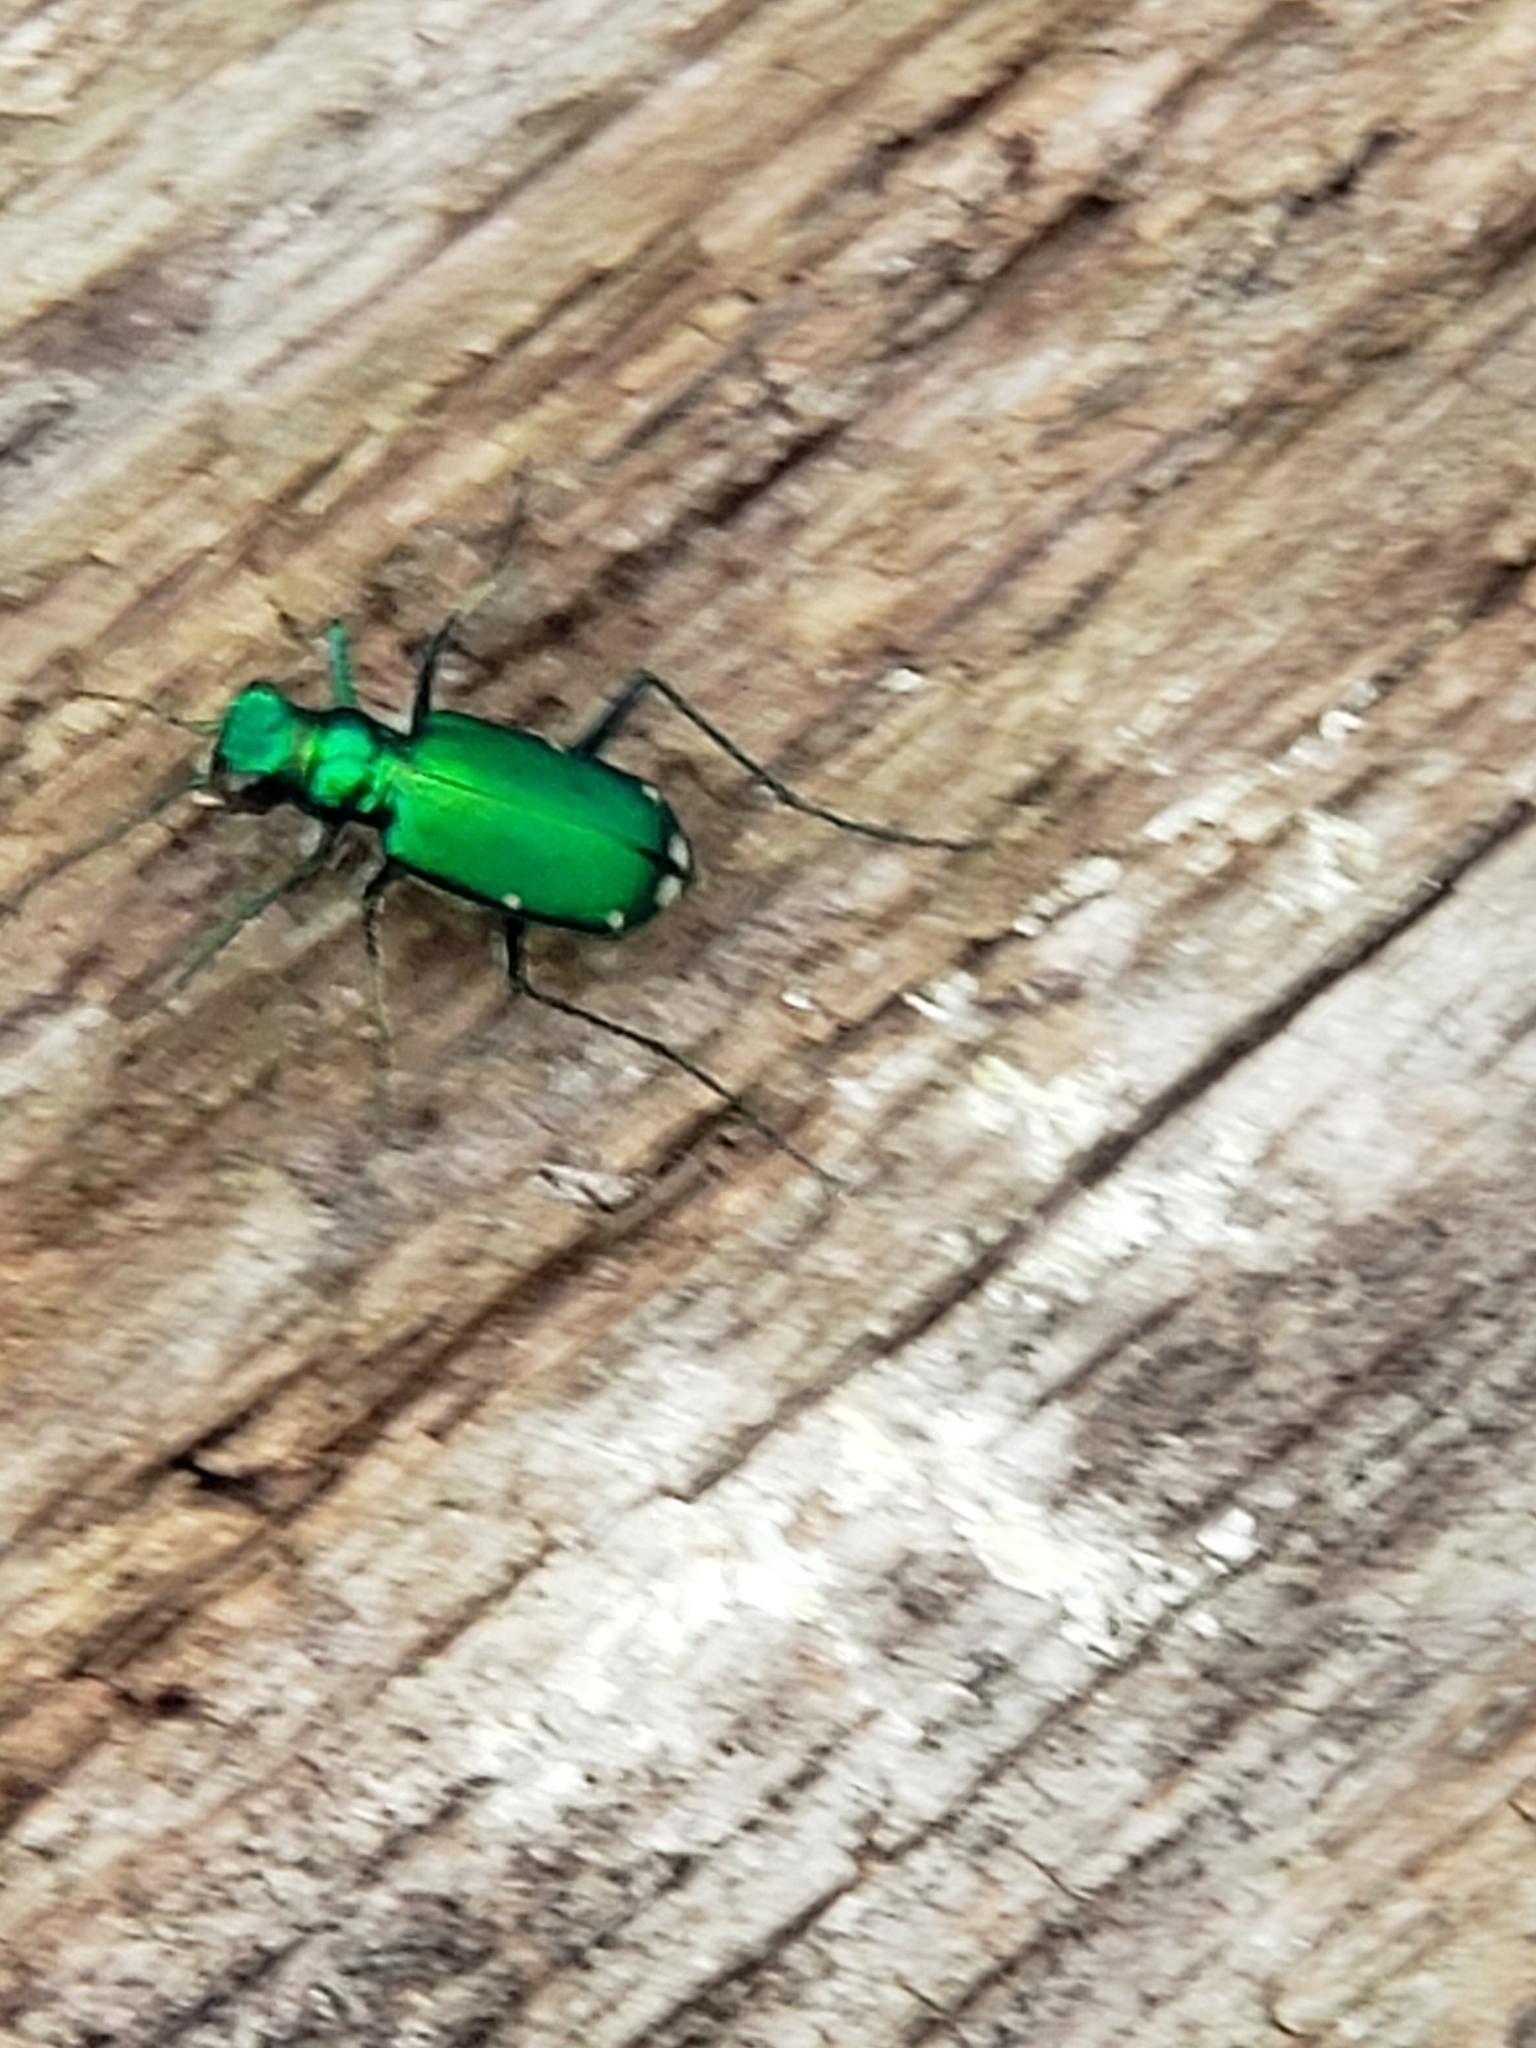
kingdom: Animalia
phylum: Arthropoda
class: Insecta
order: Coleoptera
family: Carabidae
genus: Cicindela
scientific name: Cicindela sexguttata
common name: Six-spotted tiger beetle
